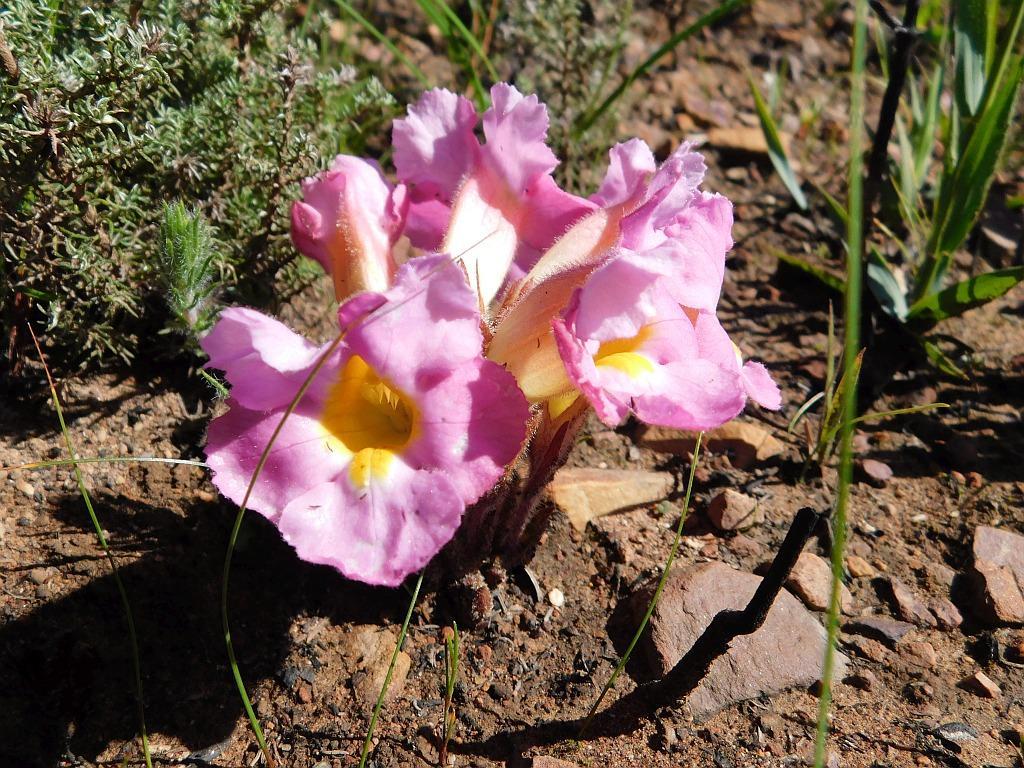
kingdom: Plantae
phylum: Tracheophyta
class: Magnoliopsida
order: Lamiales
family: Orobanchaceae
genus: Harveya
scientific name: Harveya purpurea
